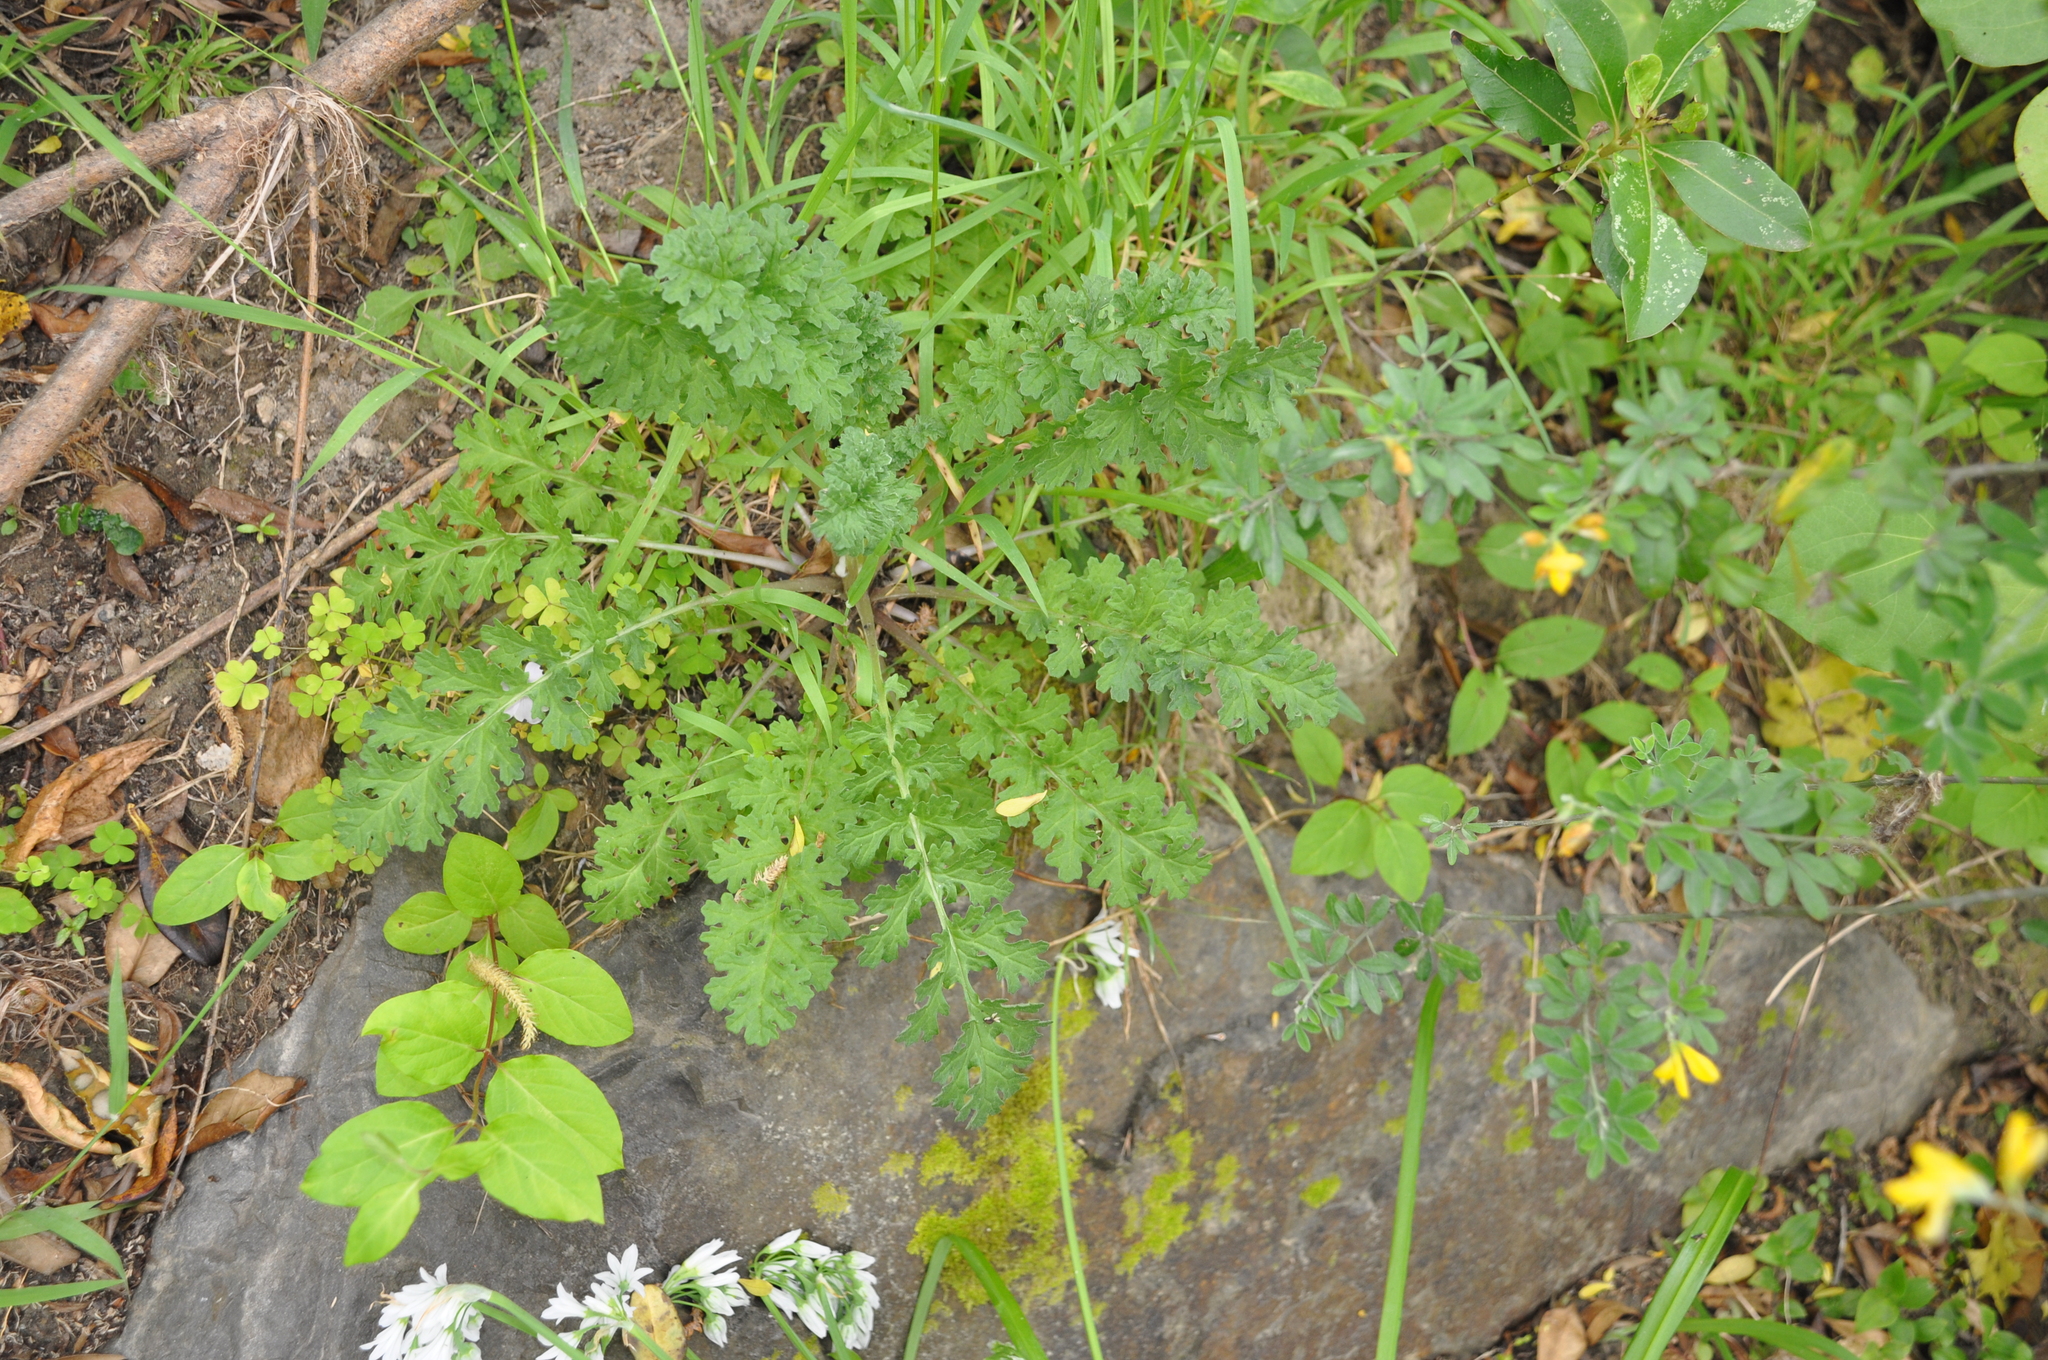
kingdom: Plantae
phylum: Tracheophyta
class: Magnoliopsida
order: Asterales
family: Asteraceae
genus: Jacobaea
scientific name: Jacobaea vulgaris
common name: Stinking willie
